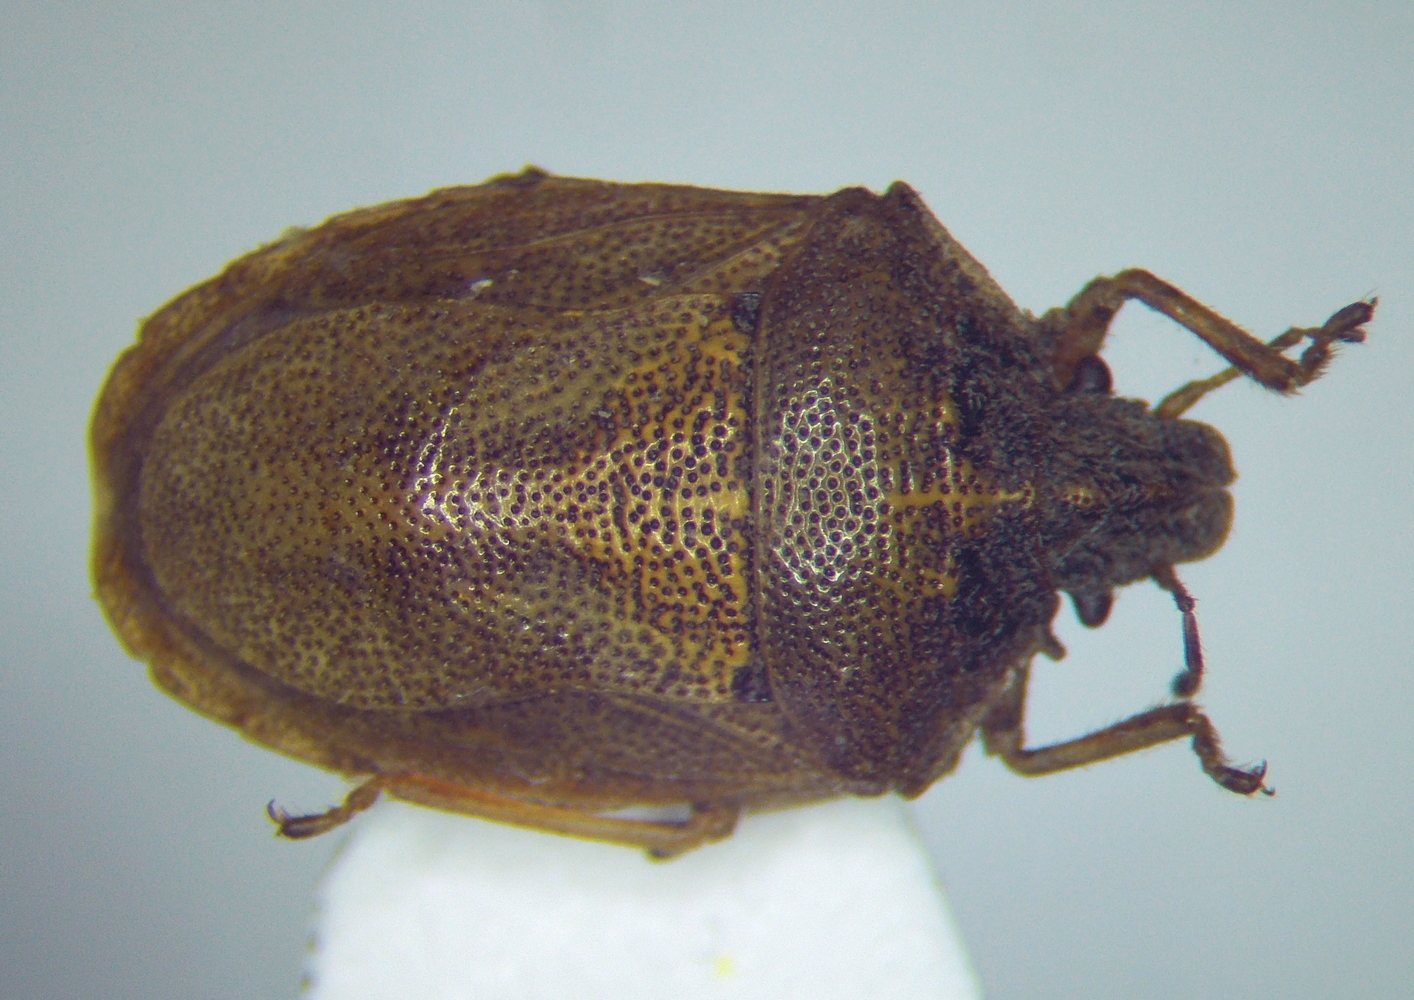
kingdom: Animalia
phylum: Arthropoda
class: Insecta
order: Hemiptera
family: Pentatomidae
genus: Podops
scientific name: Podops rectidens
